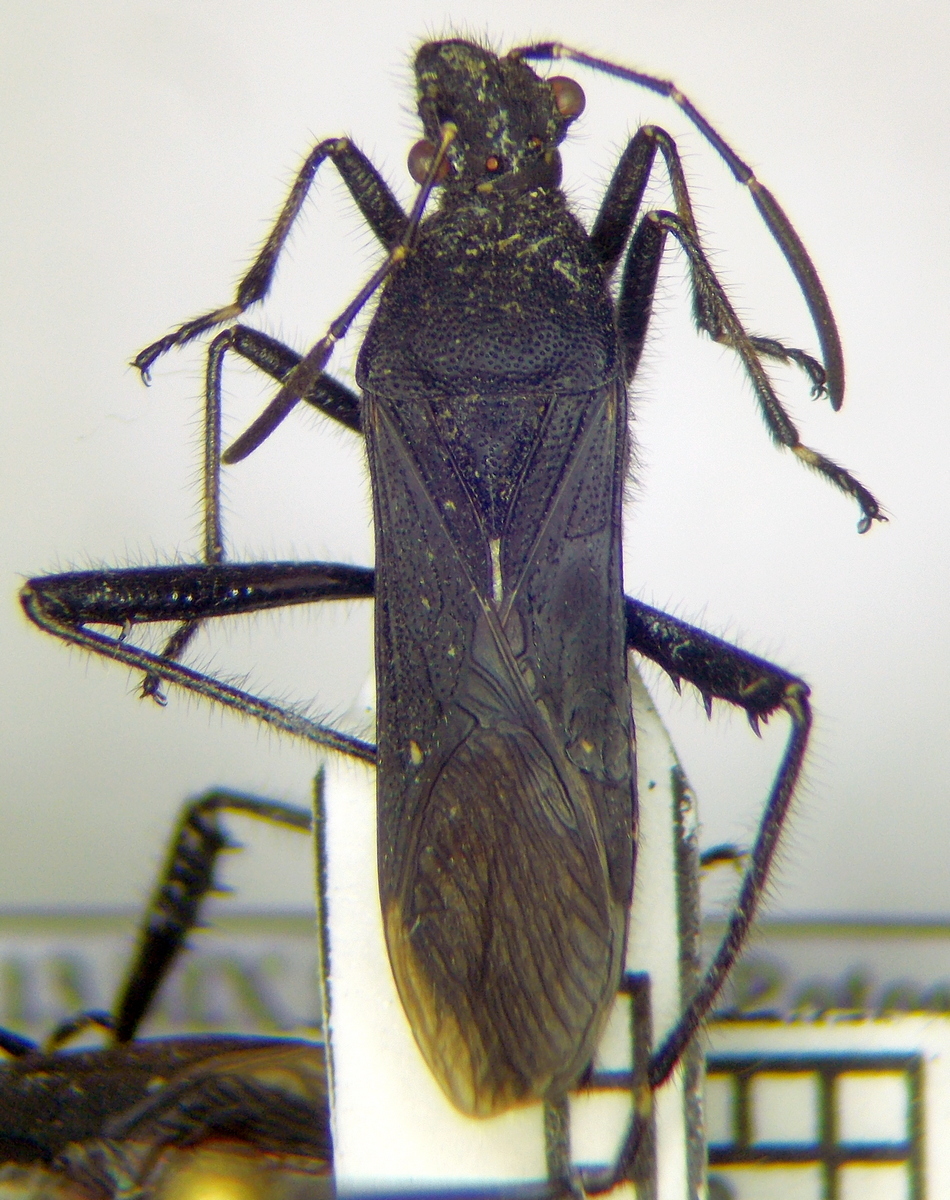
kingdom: Animalia
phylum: Arthropoda
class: Insecta
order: Hemiptera
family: Alydidae
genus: Alydus
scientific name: Alydus eurinus
